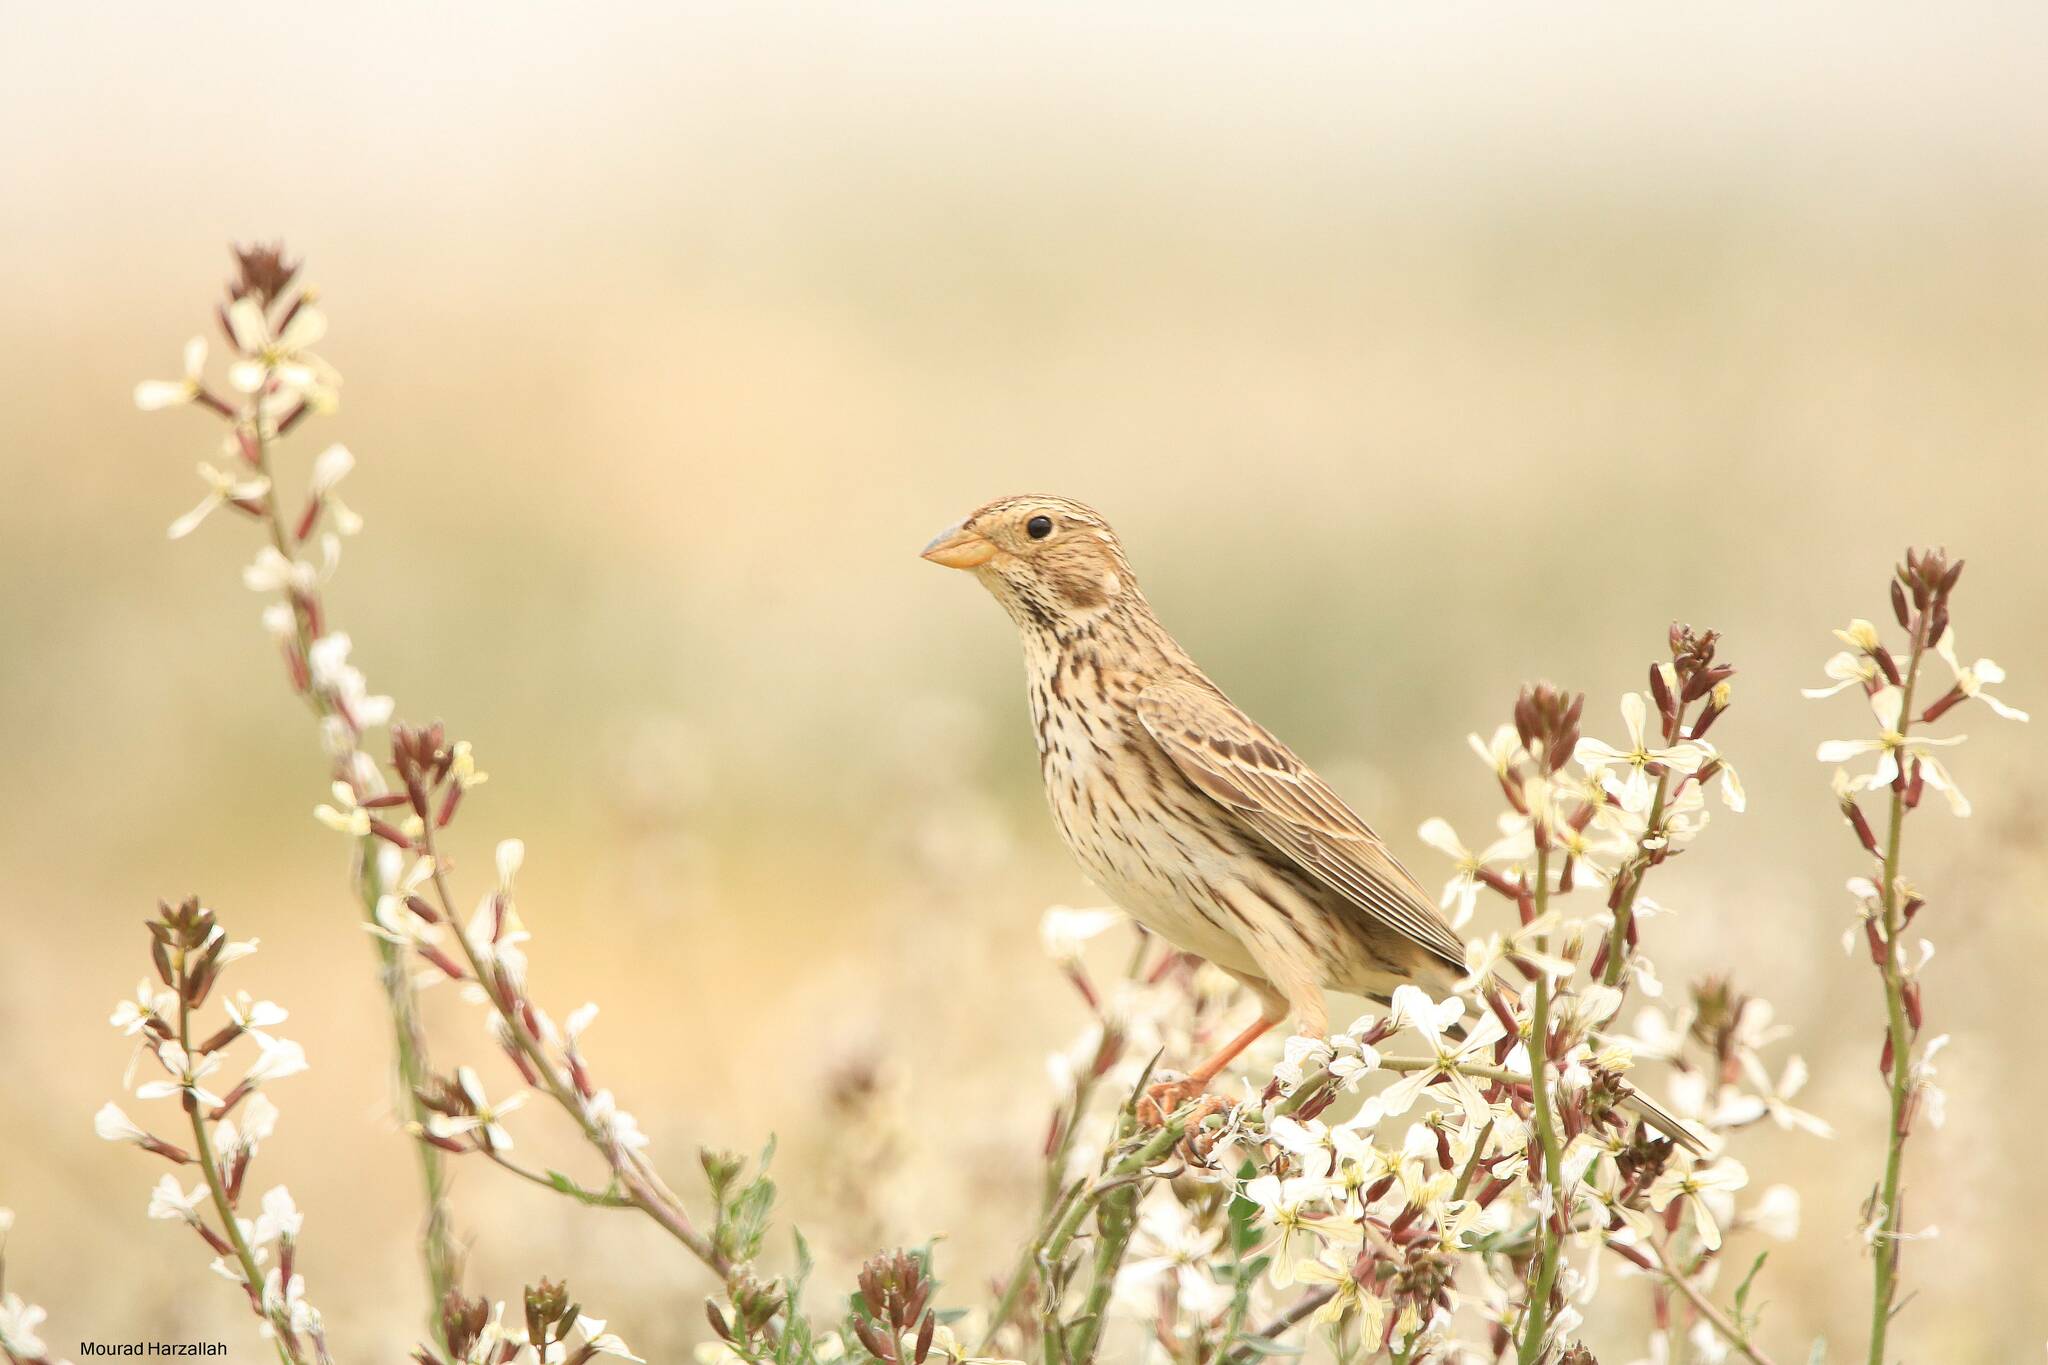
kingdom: Animalia
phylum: Chordata
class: Aves
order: Passeriformes
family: Emberizidae
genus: Emberiza
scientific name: Emberiza calandra
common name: Corn bunting
